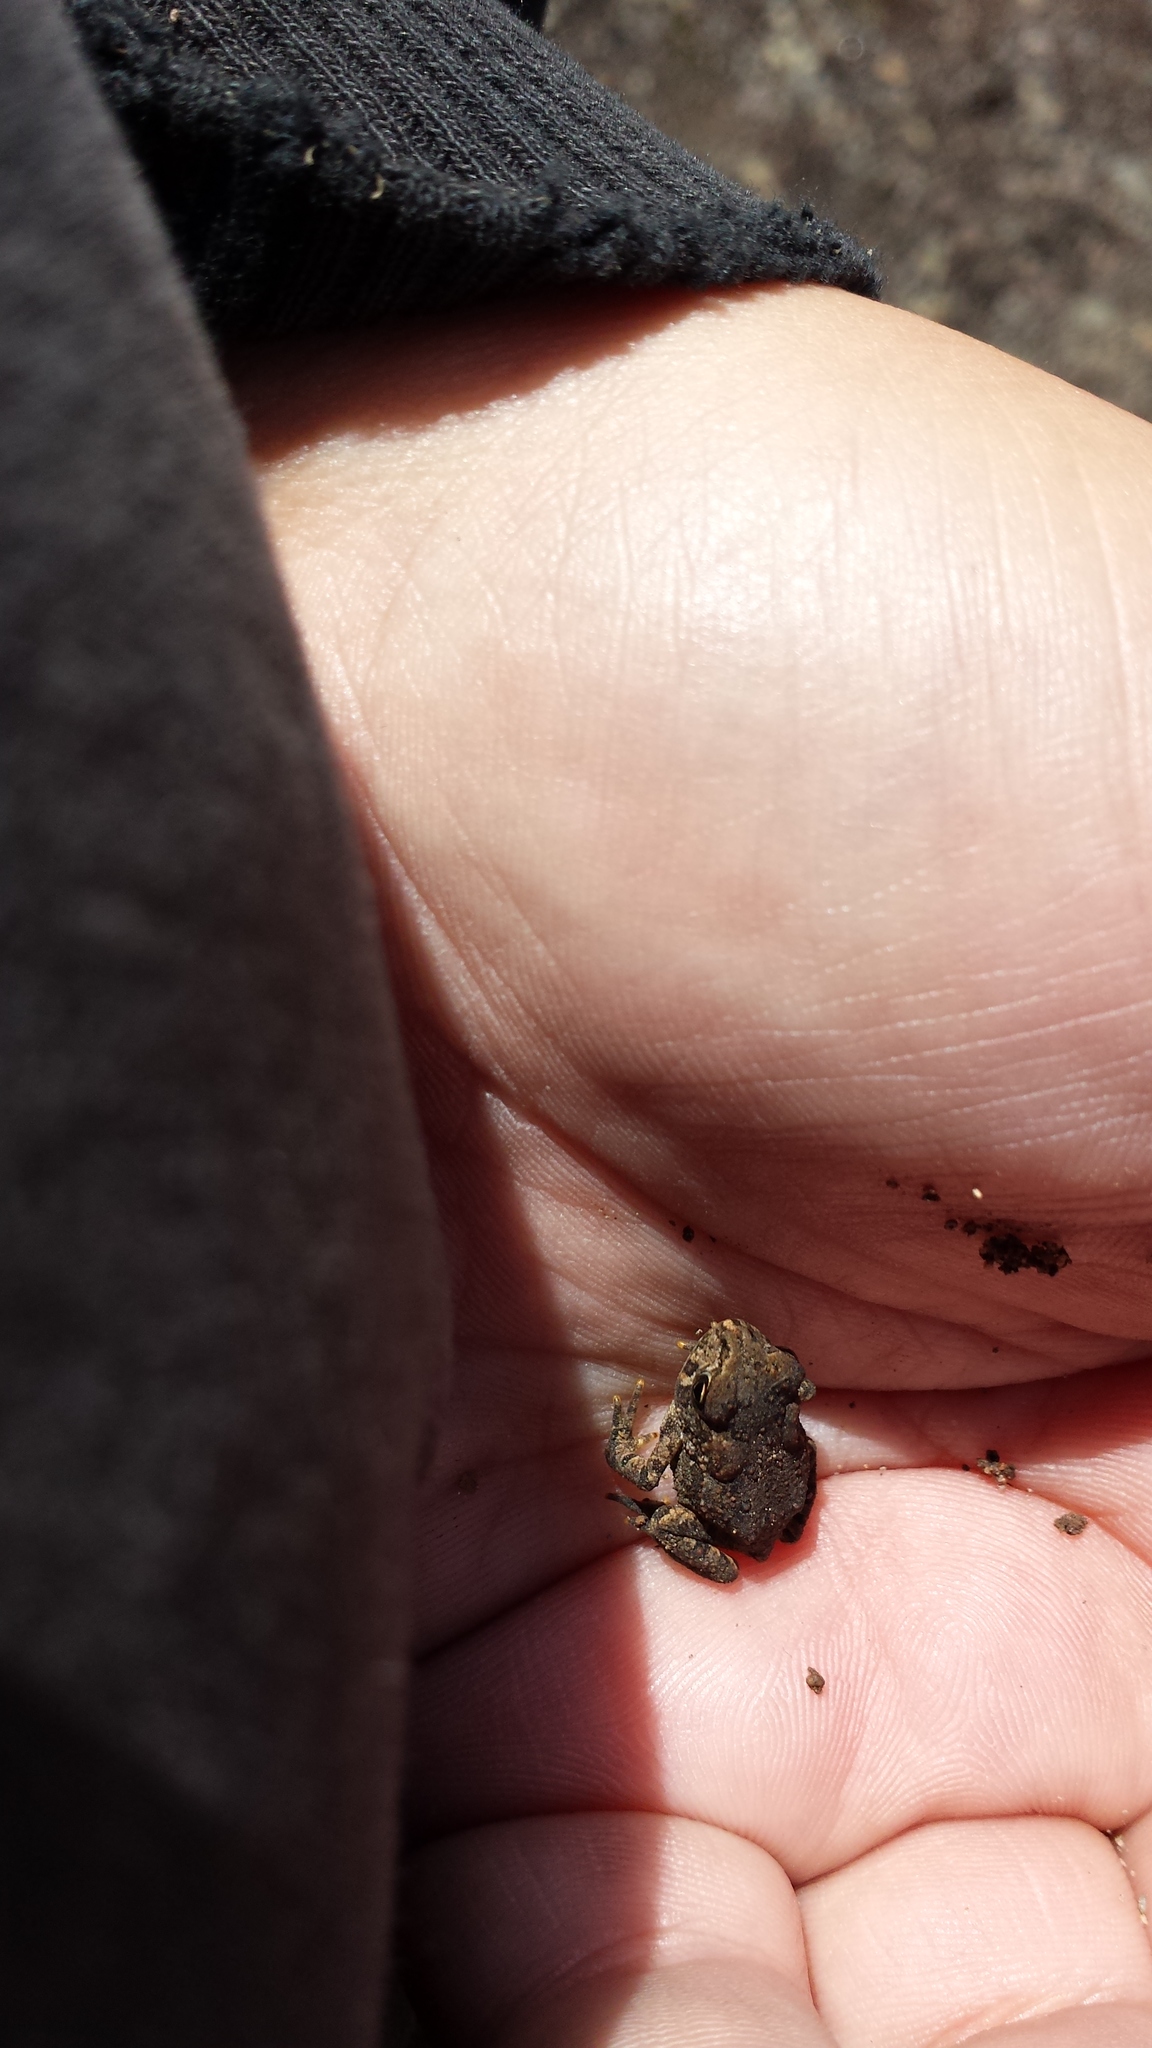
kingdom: Animalia
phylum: Chordata
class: Amphibia
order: Anura
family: Bufonidae
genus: Anaxyrus
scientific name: Anaxyrus americanus
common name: American toad
